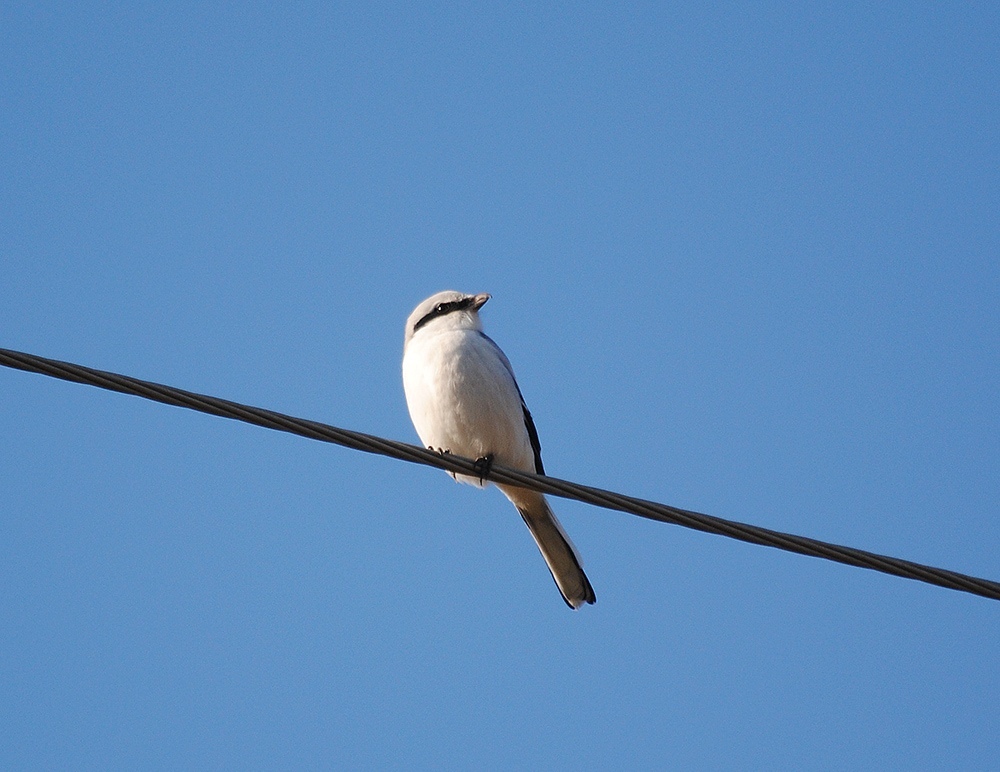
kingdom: Animalia
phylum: Chordata
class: Aves
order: Passeriformes
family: Laniidae
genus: Lanius
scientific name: Lanius excubitor
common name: Great grey shrike
